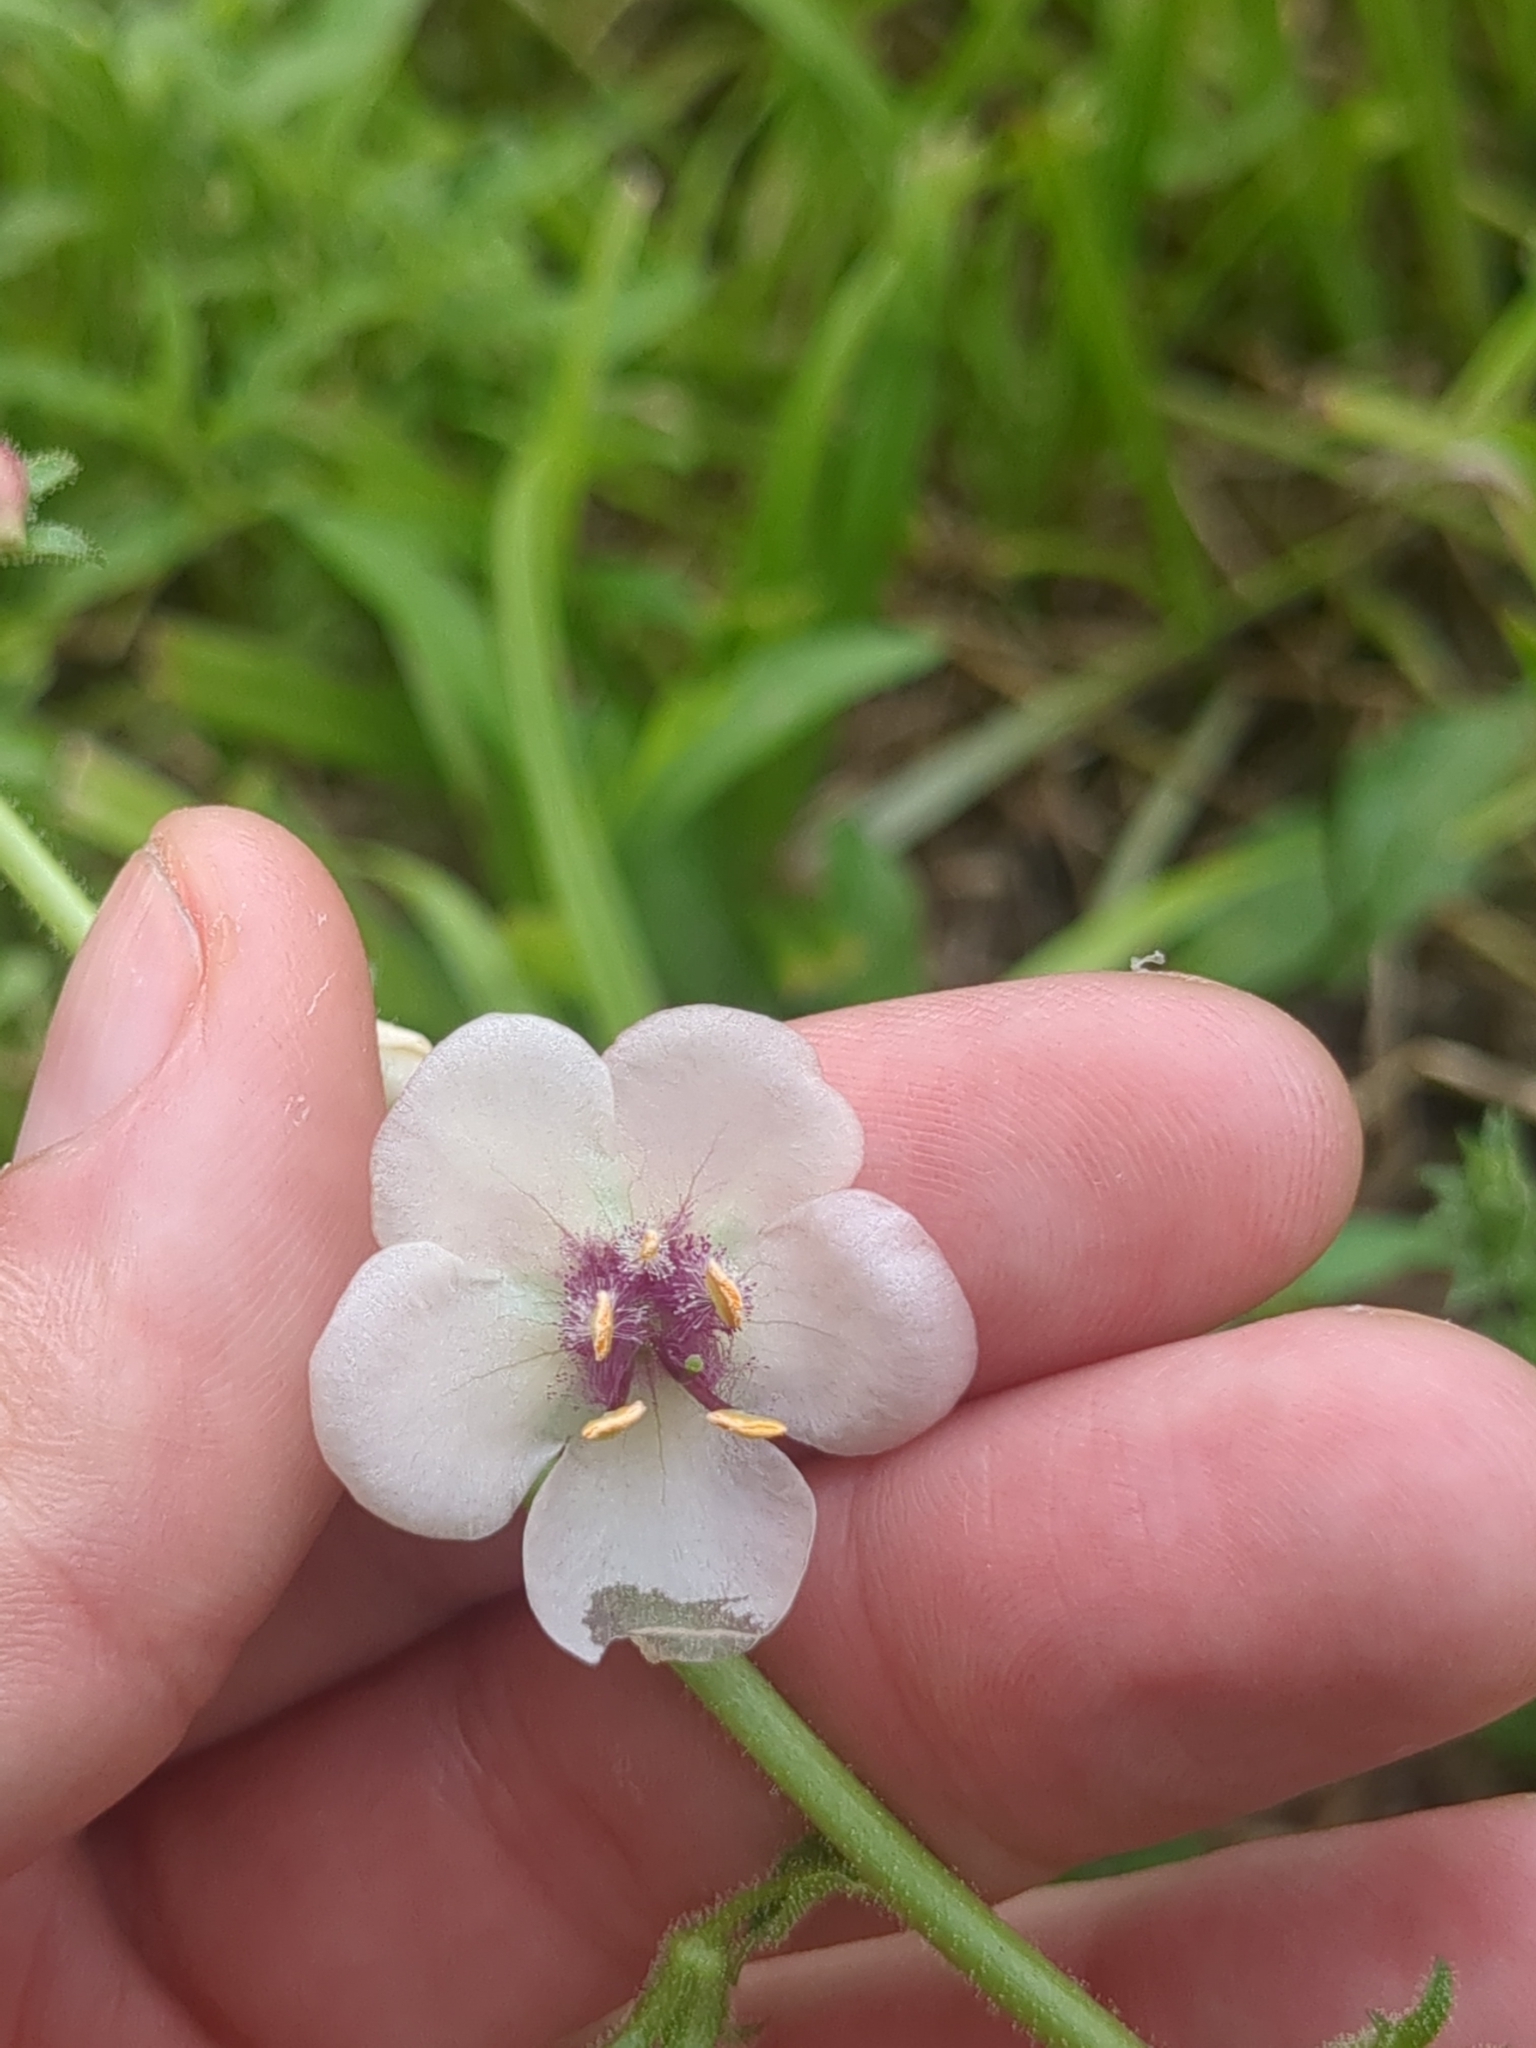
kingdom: Plantae
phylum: Tracheophyta
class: Magnoliopsida
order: Lamiales
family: Scrophulariaceae
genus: Verbascum
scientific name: Verbascum blattaria
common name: Moth mullein
